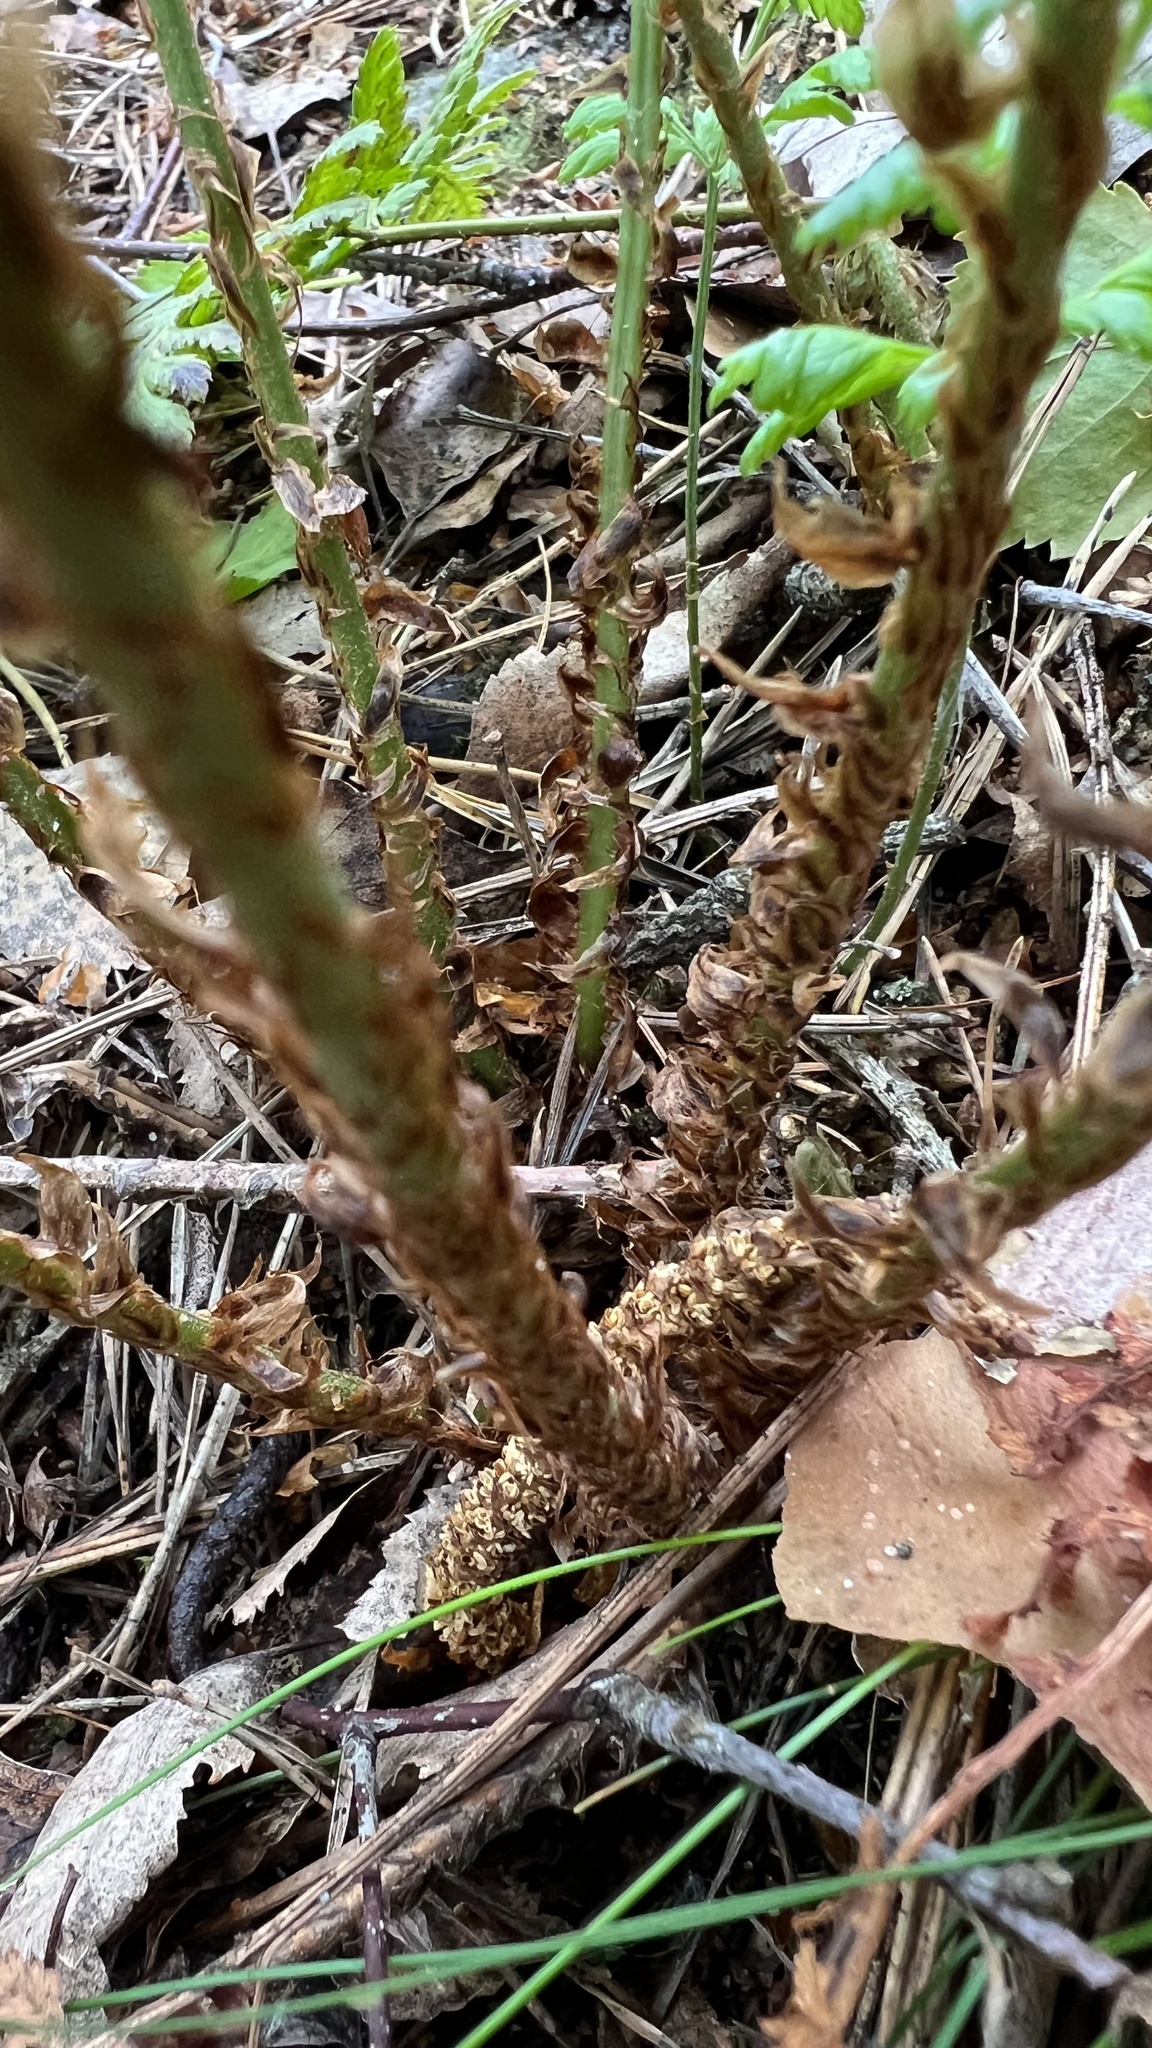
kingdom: Plantae
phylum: Tracheophyta
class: Polypodiopsida
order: Polypodiales
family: Dryopteridaceae
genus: Dryopteris
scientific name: Dryopteris dilatata
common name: Broad buckler-fern
